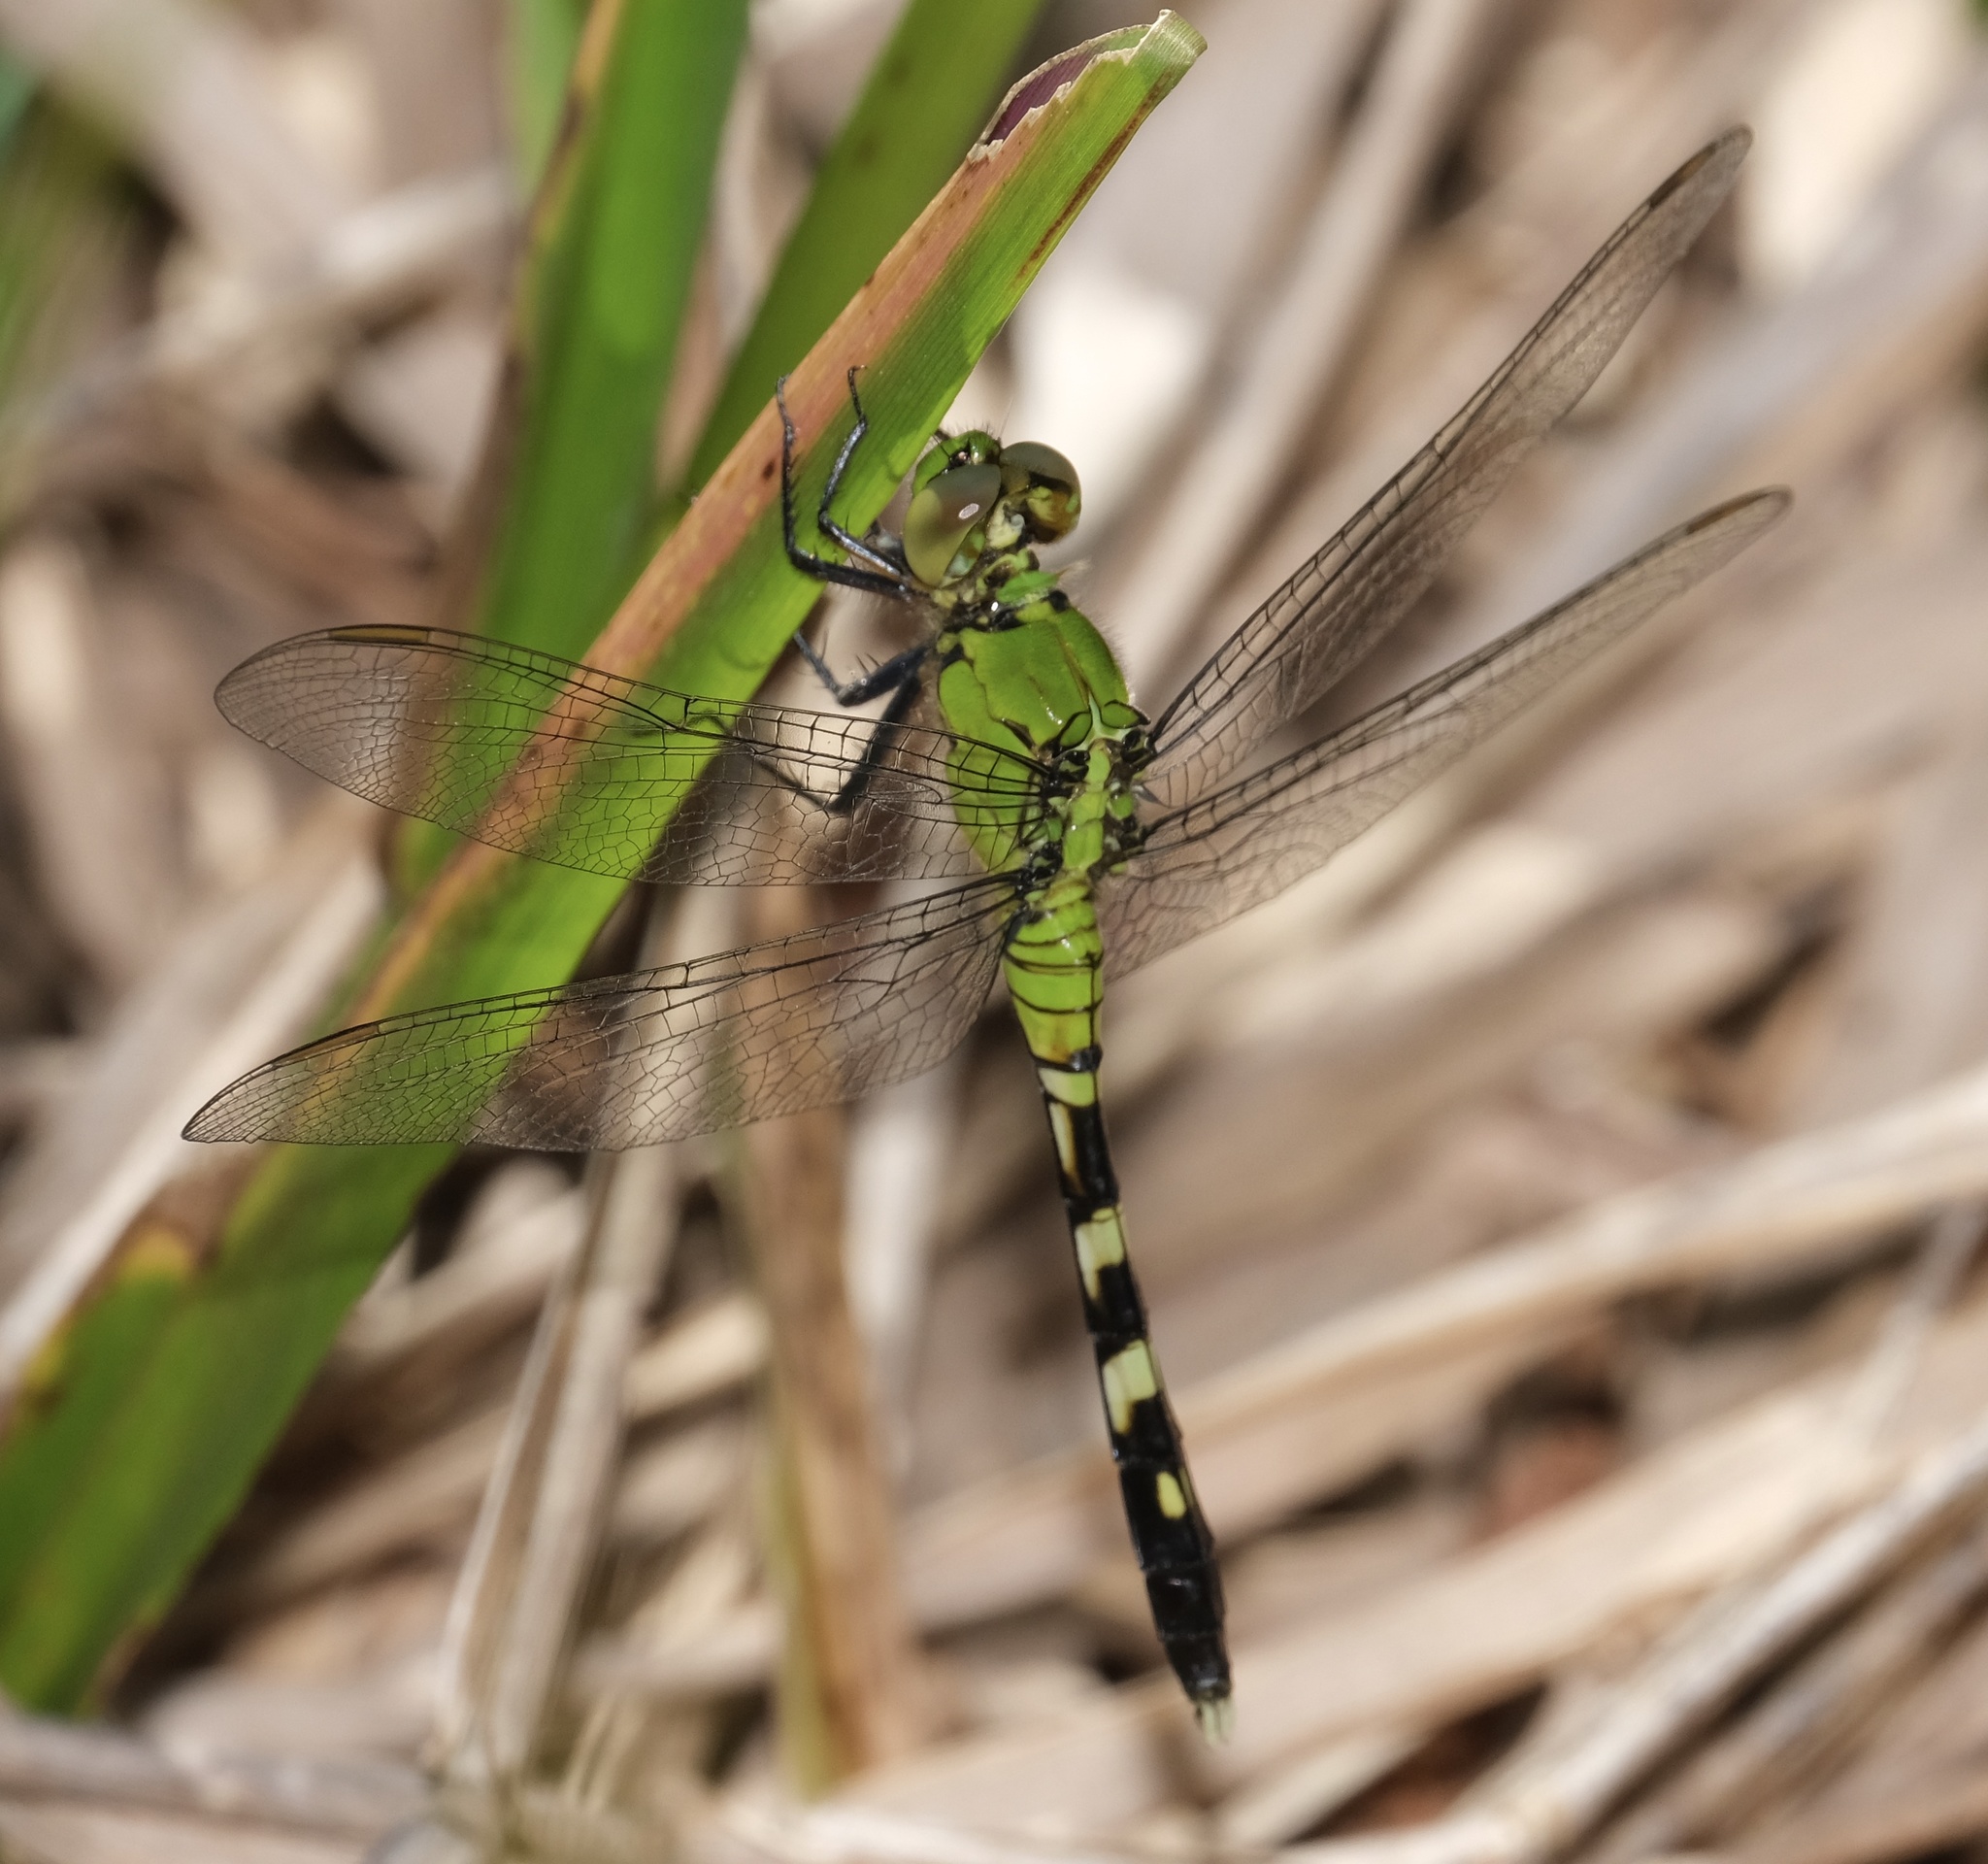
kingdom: Animalia
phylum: Arthropoda
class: Insecta
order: Odonata
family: Libellulidae
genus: Erythemis
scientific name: Erythemis simplicicollis
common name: Eastern pondhawk
